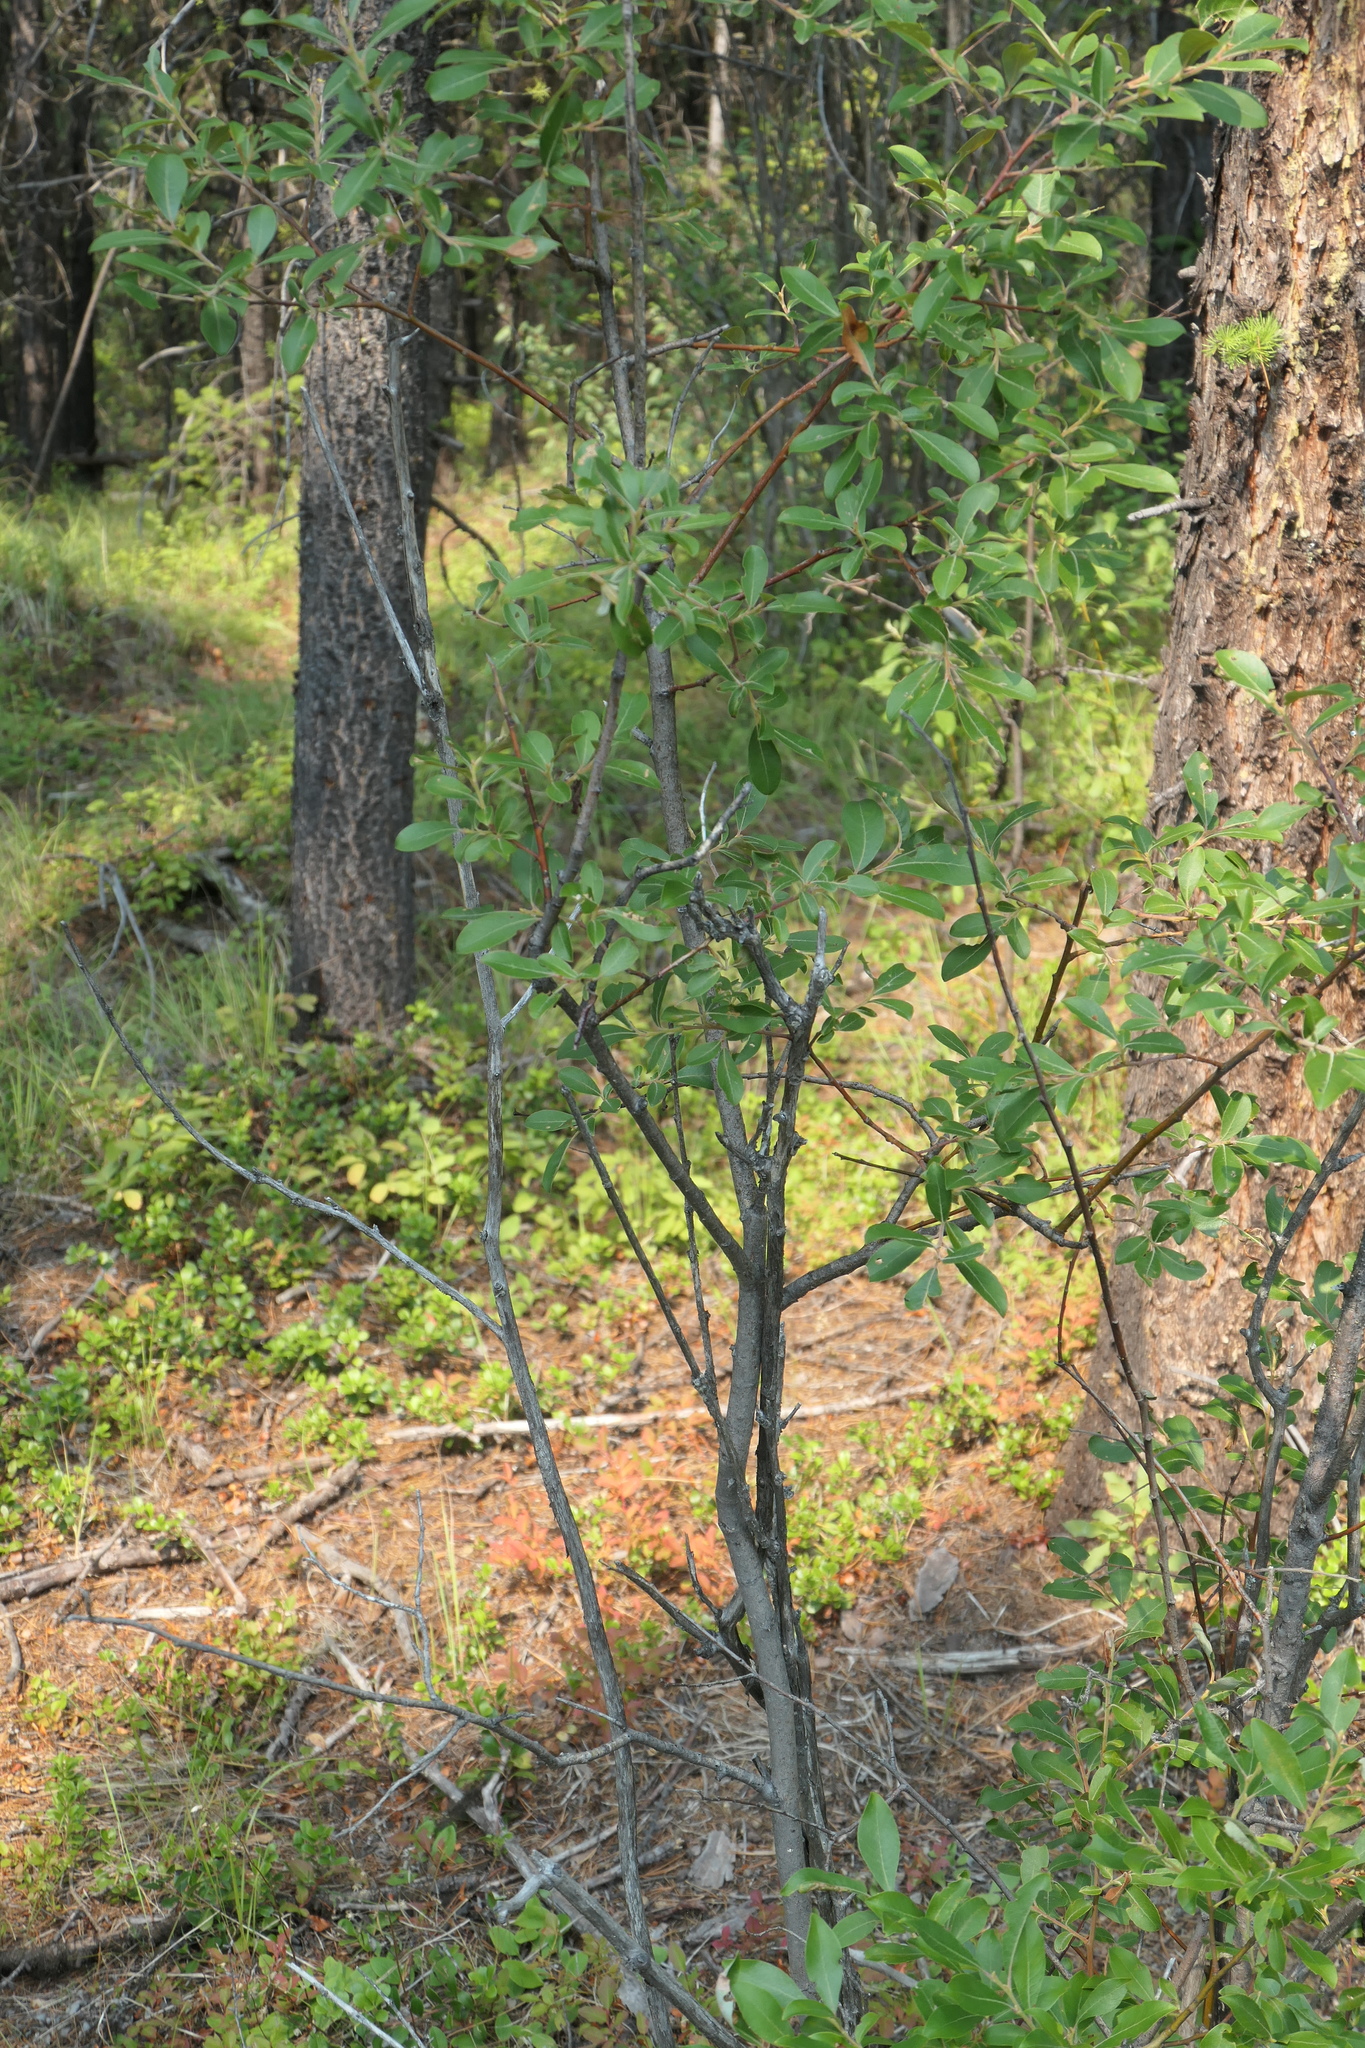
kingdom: Plantae
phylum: Tracheophyta
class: Magnoliopsida
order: Malpighiales
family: Salicaceae
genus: Salix
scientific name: Salix scouleriana
